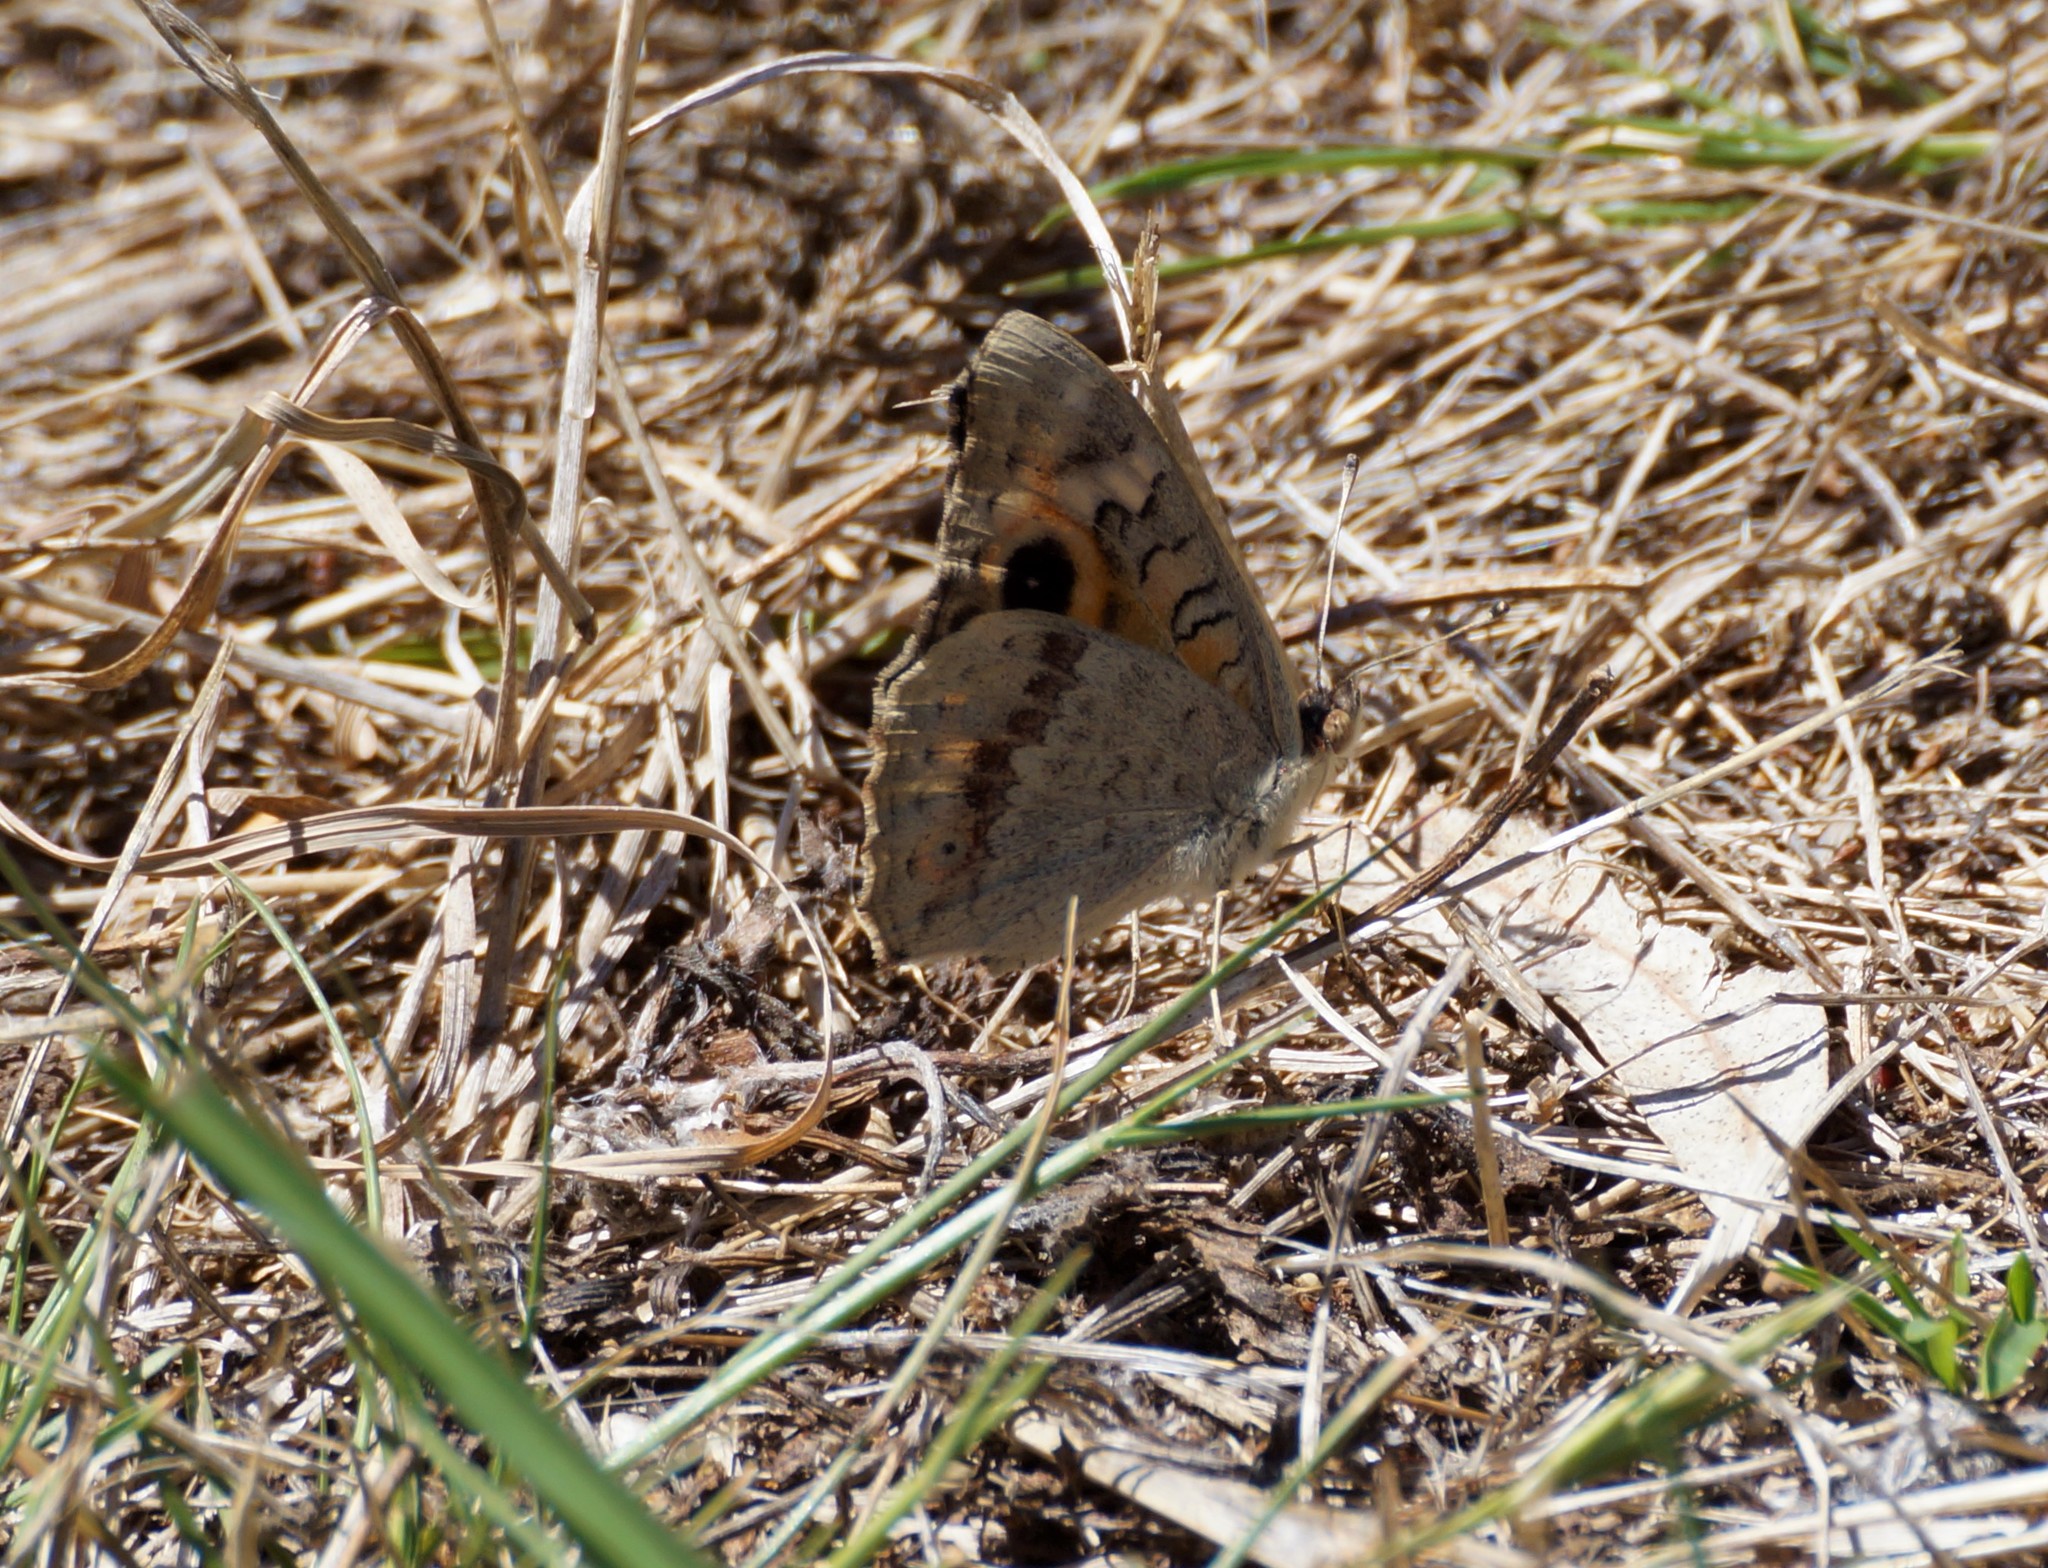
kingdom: Animalia
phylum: Arthropoda
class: Insecta
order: Lepidoptera
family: Nymphalidae
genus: Junonia
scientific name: Junonia villida
